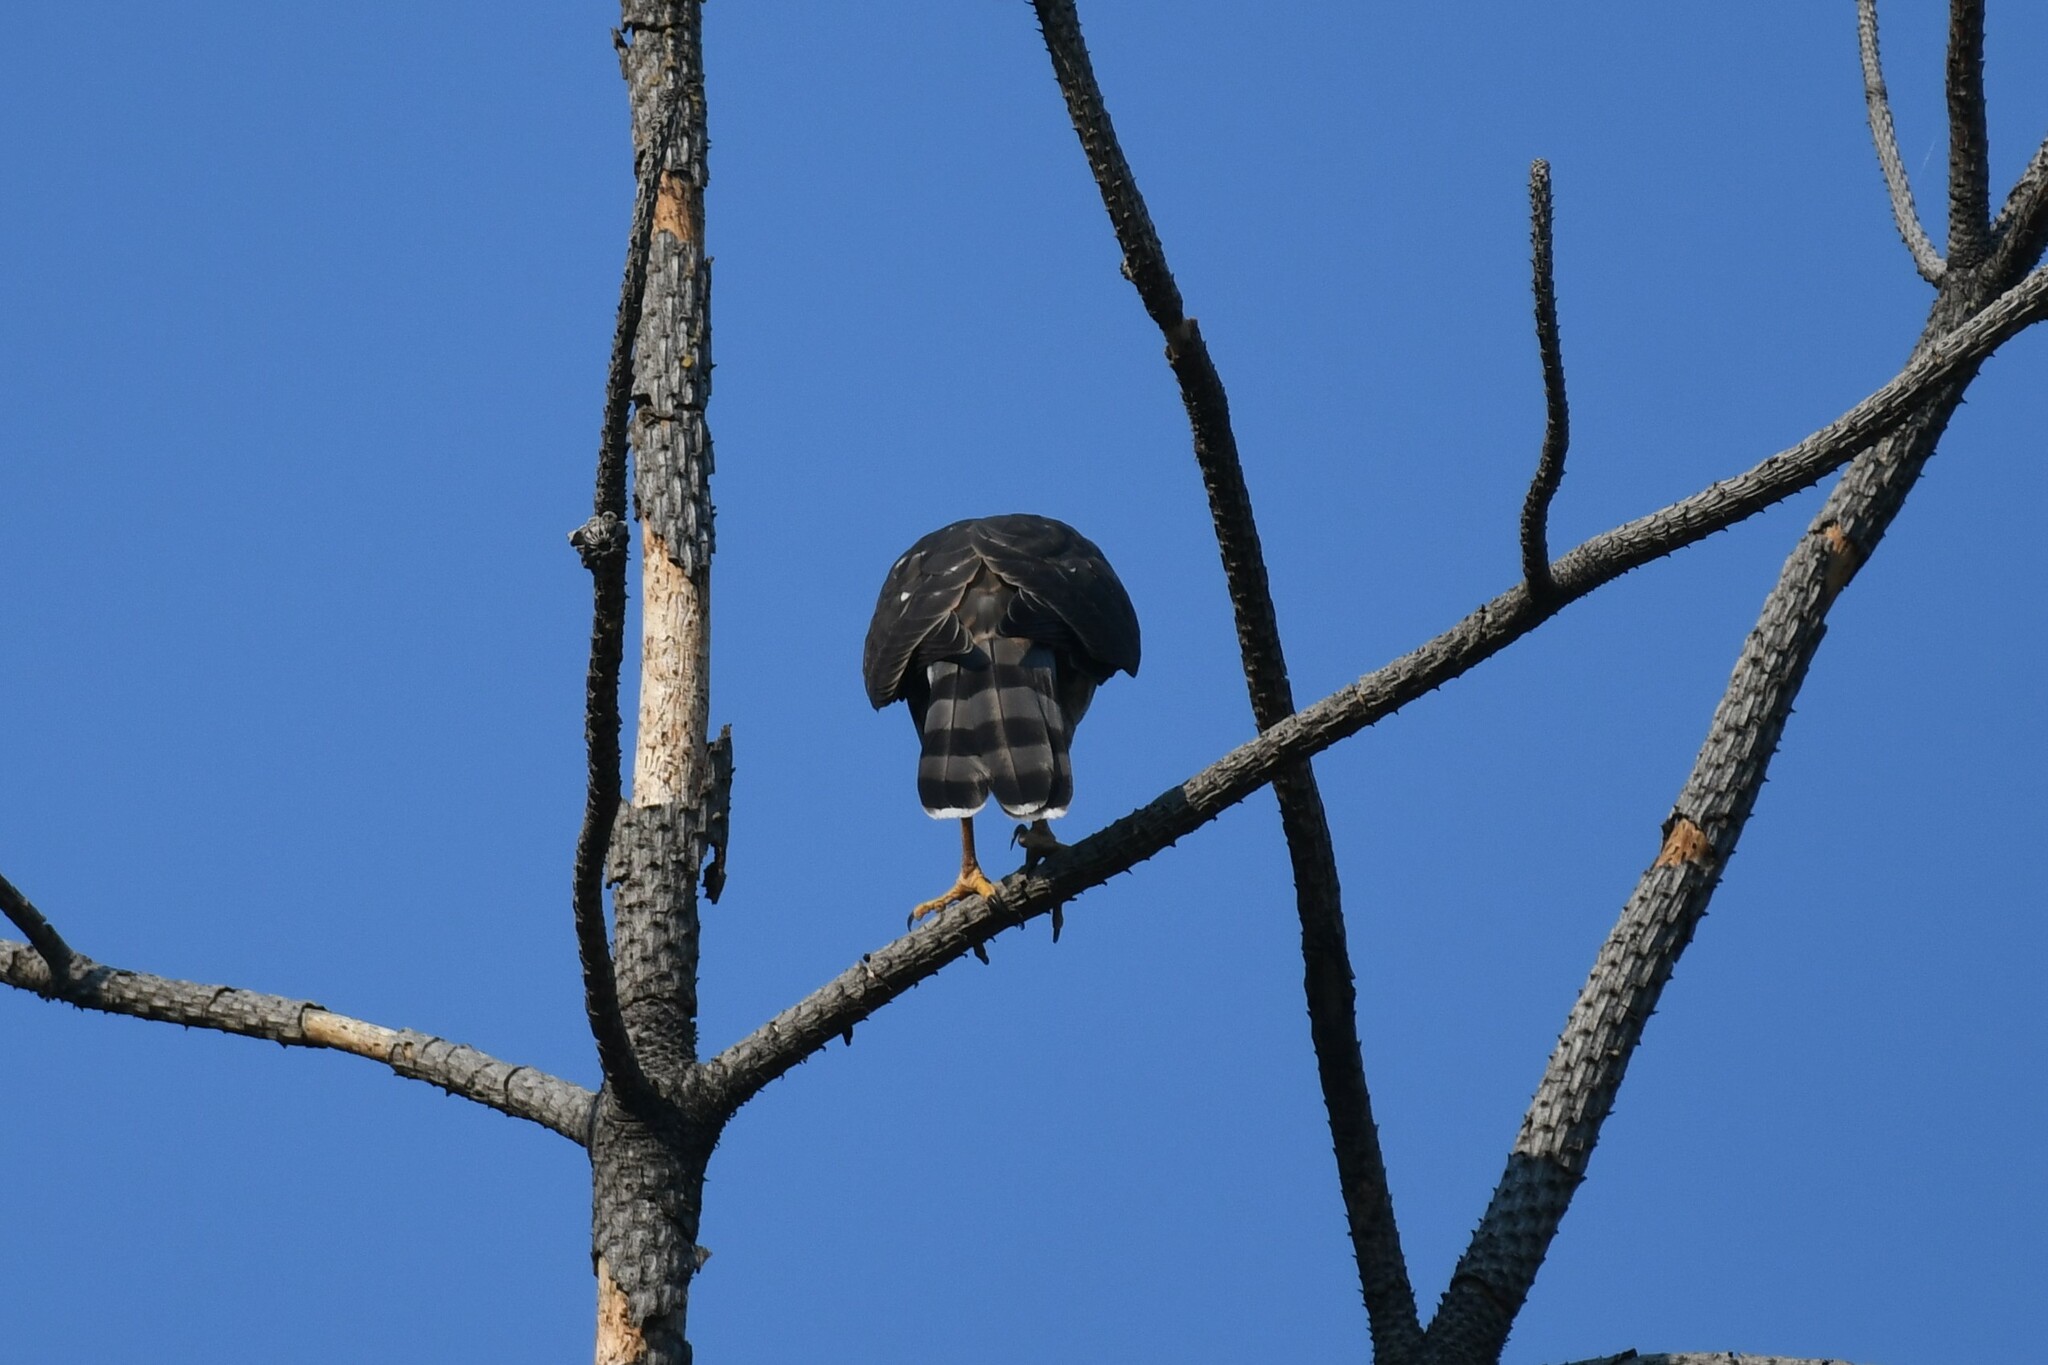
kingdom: Animalia
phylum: Chordata
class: Aves
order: Accipitriformes
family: Accipitridae
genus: Accipiter
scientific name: Accipiter cooperii
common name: Cooper's hawk
